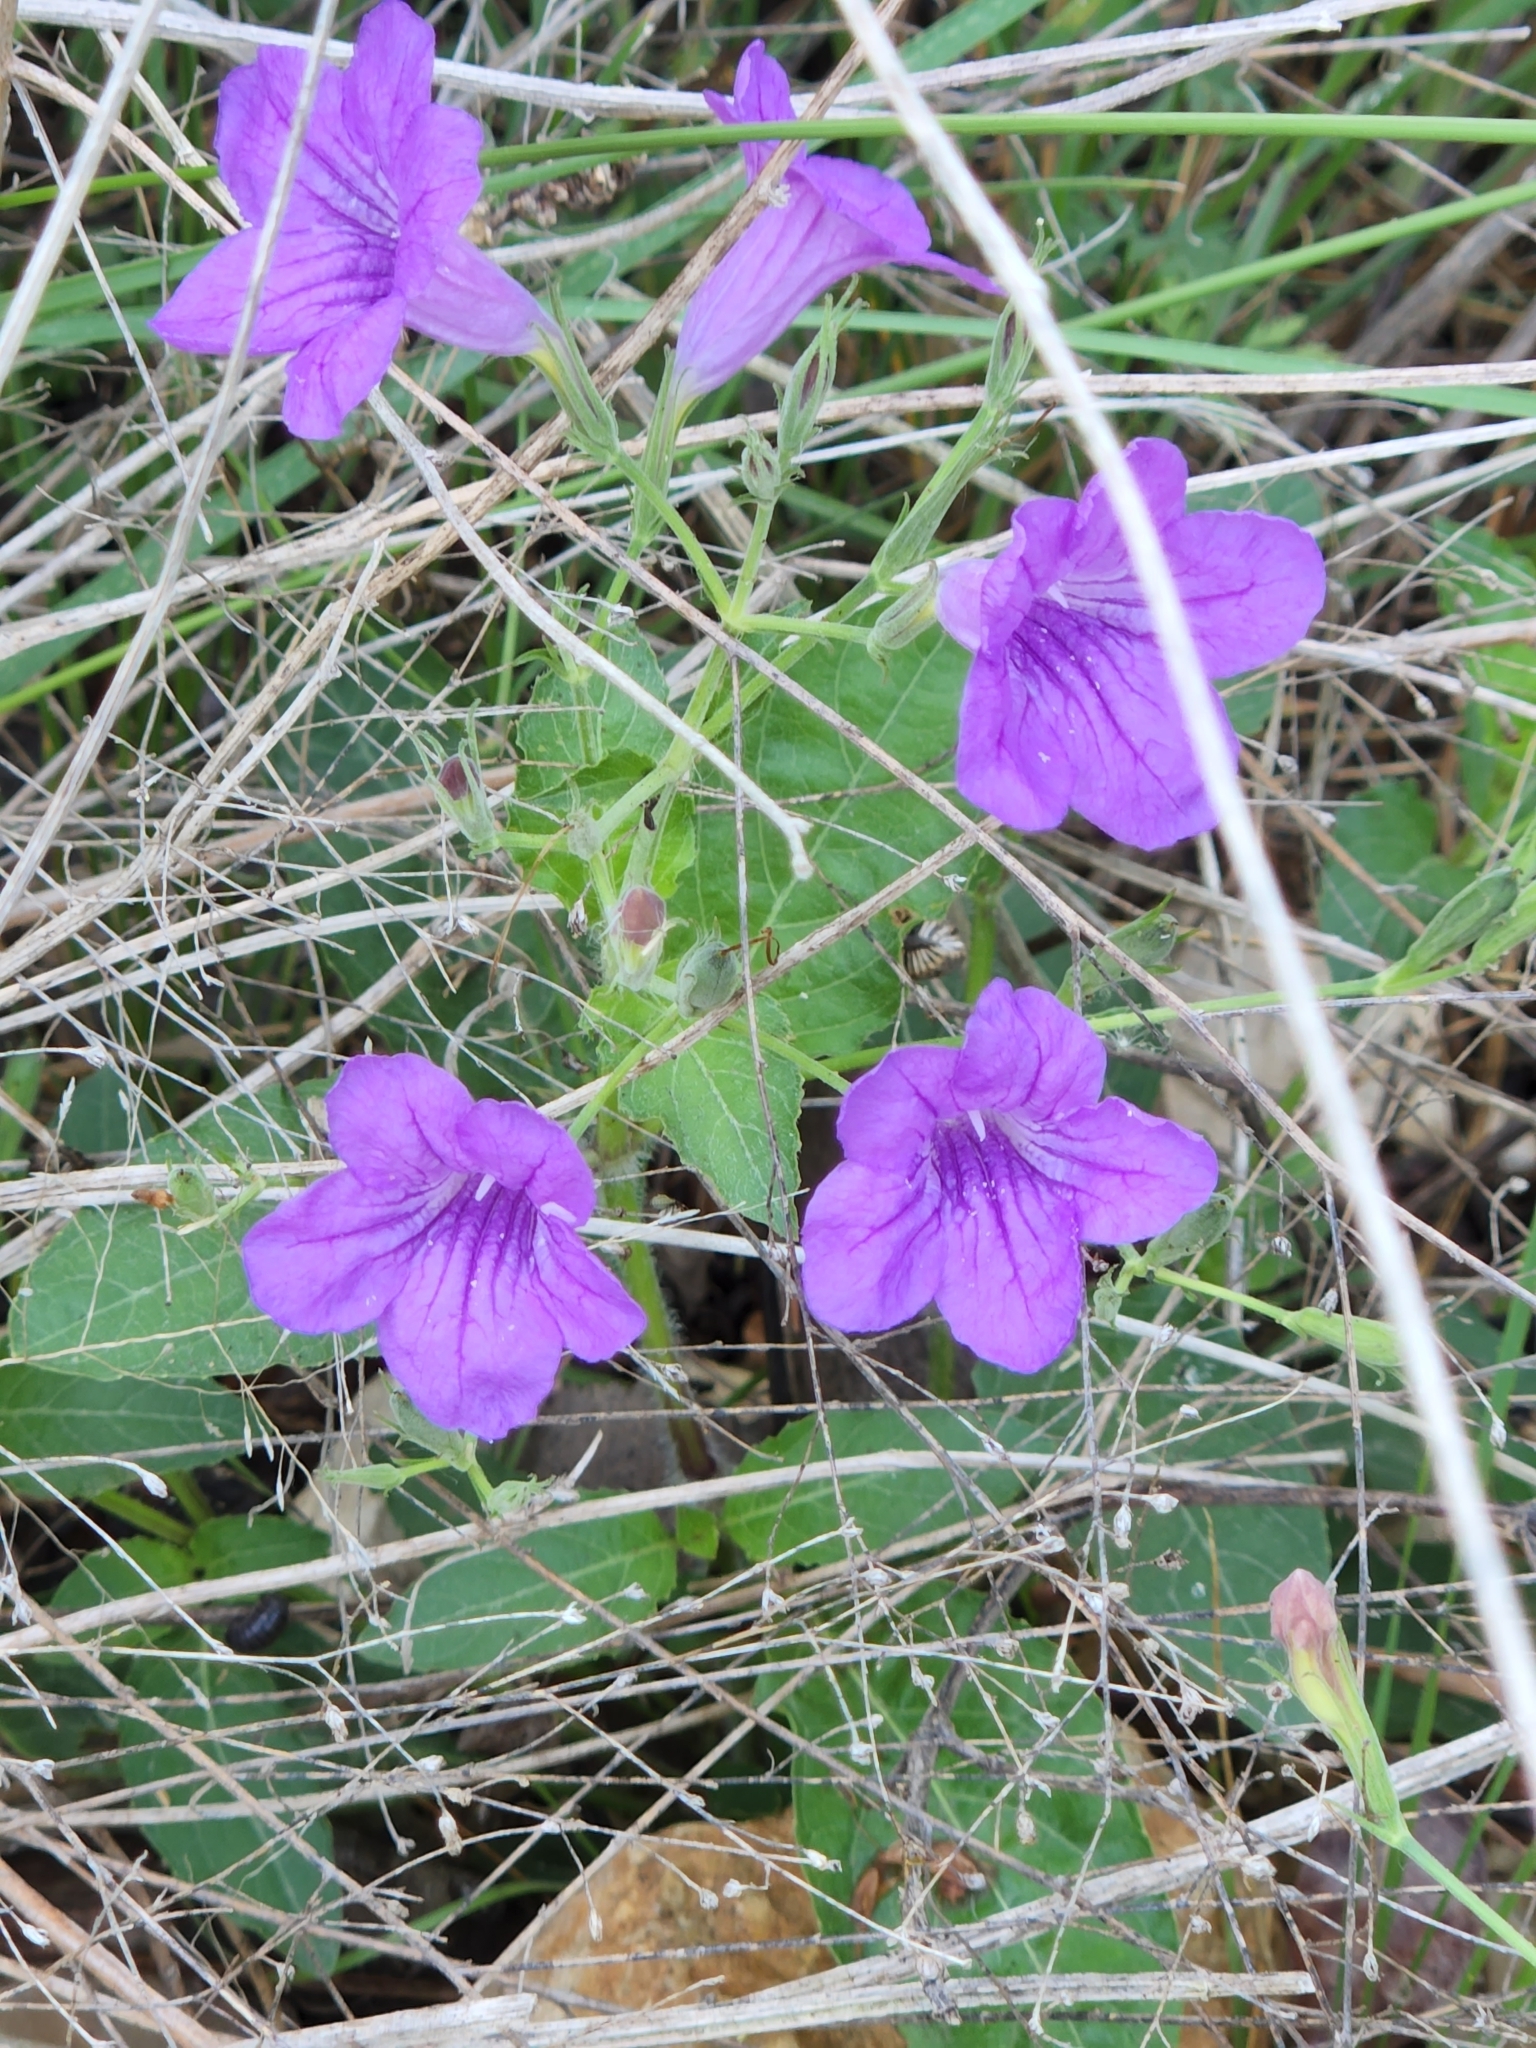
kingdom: Plantae
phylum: Tracheophyta
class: Magnoliopsida
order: Lamiales
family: Acanthaceae
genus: Ruellia
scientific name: Ruellia ciliatiflora
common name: Hairyflower wild petunia
